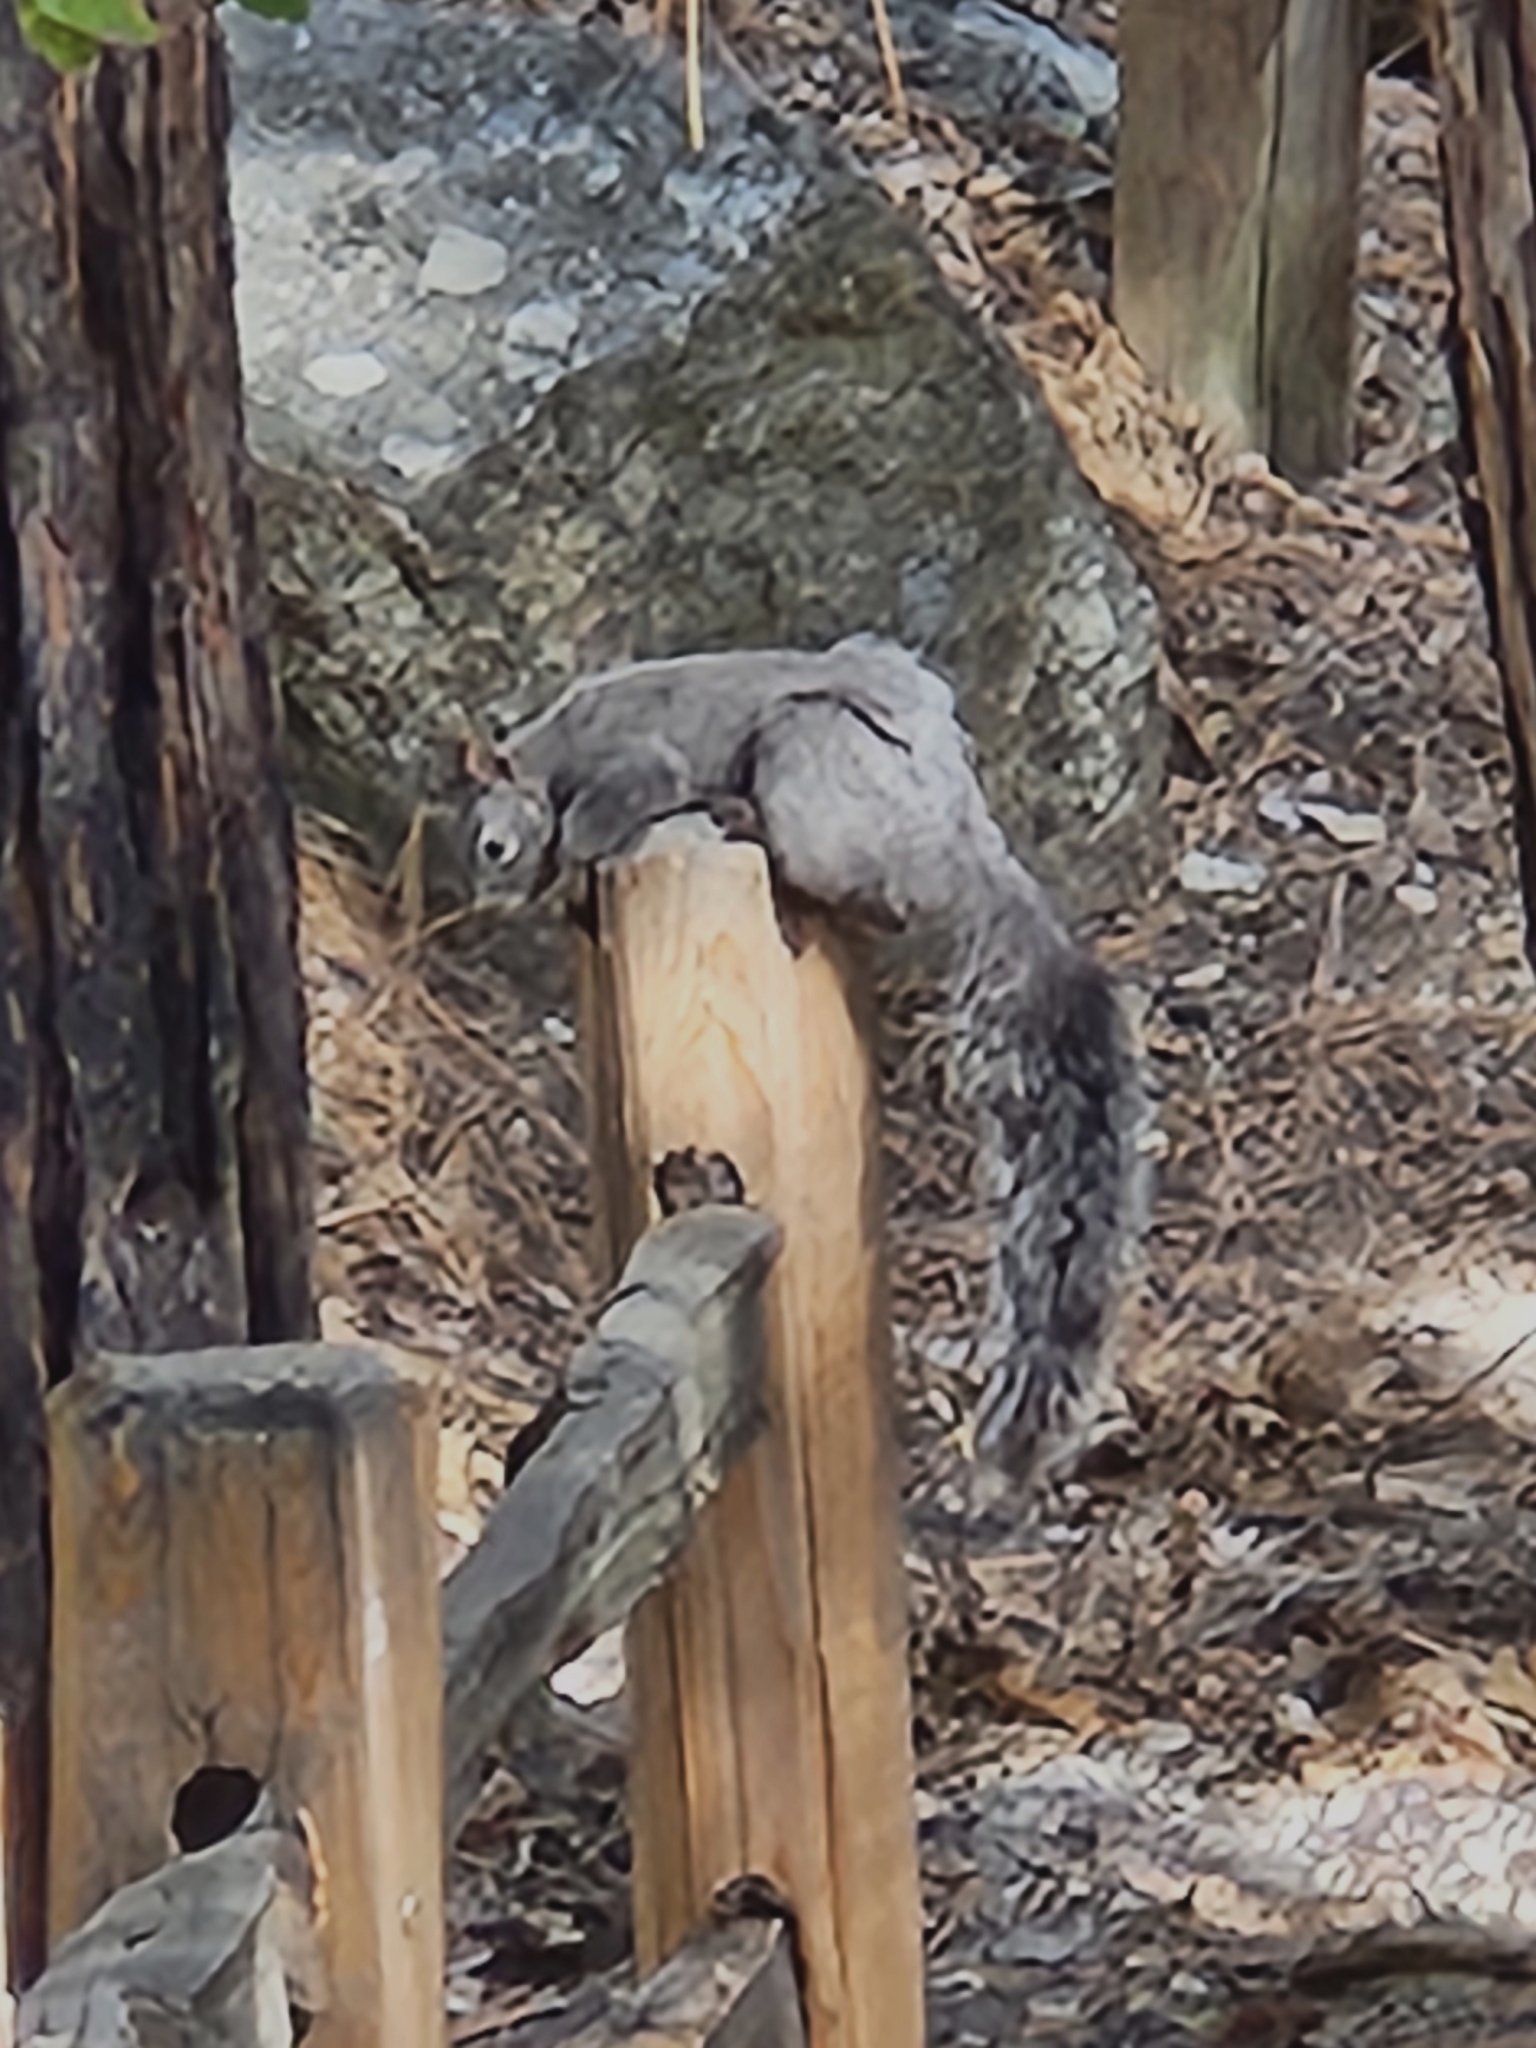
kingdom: Animalia
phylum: Chordata
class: Mammalia
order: Rodentia
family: Sciuridae
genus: Sciurus
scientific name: Sciurus griseus
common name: Western gray squirrel
